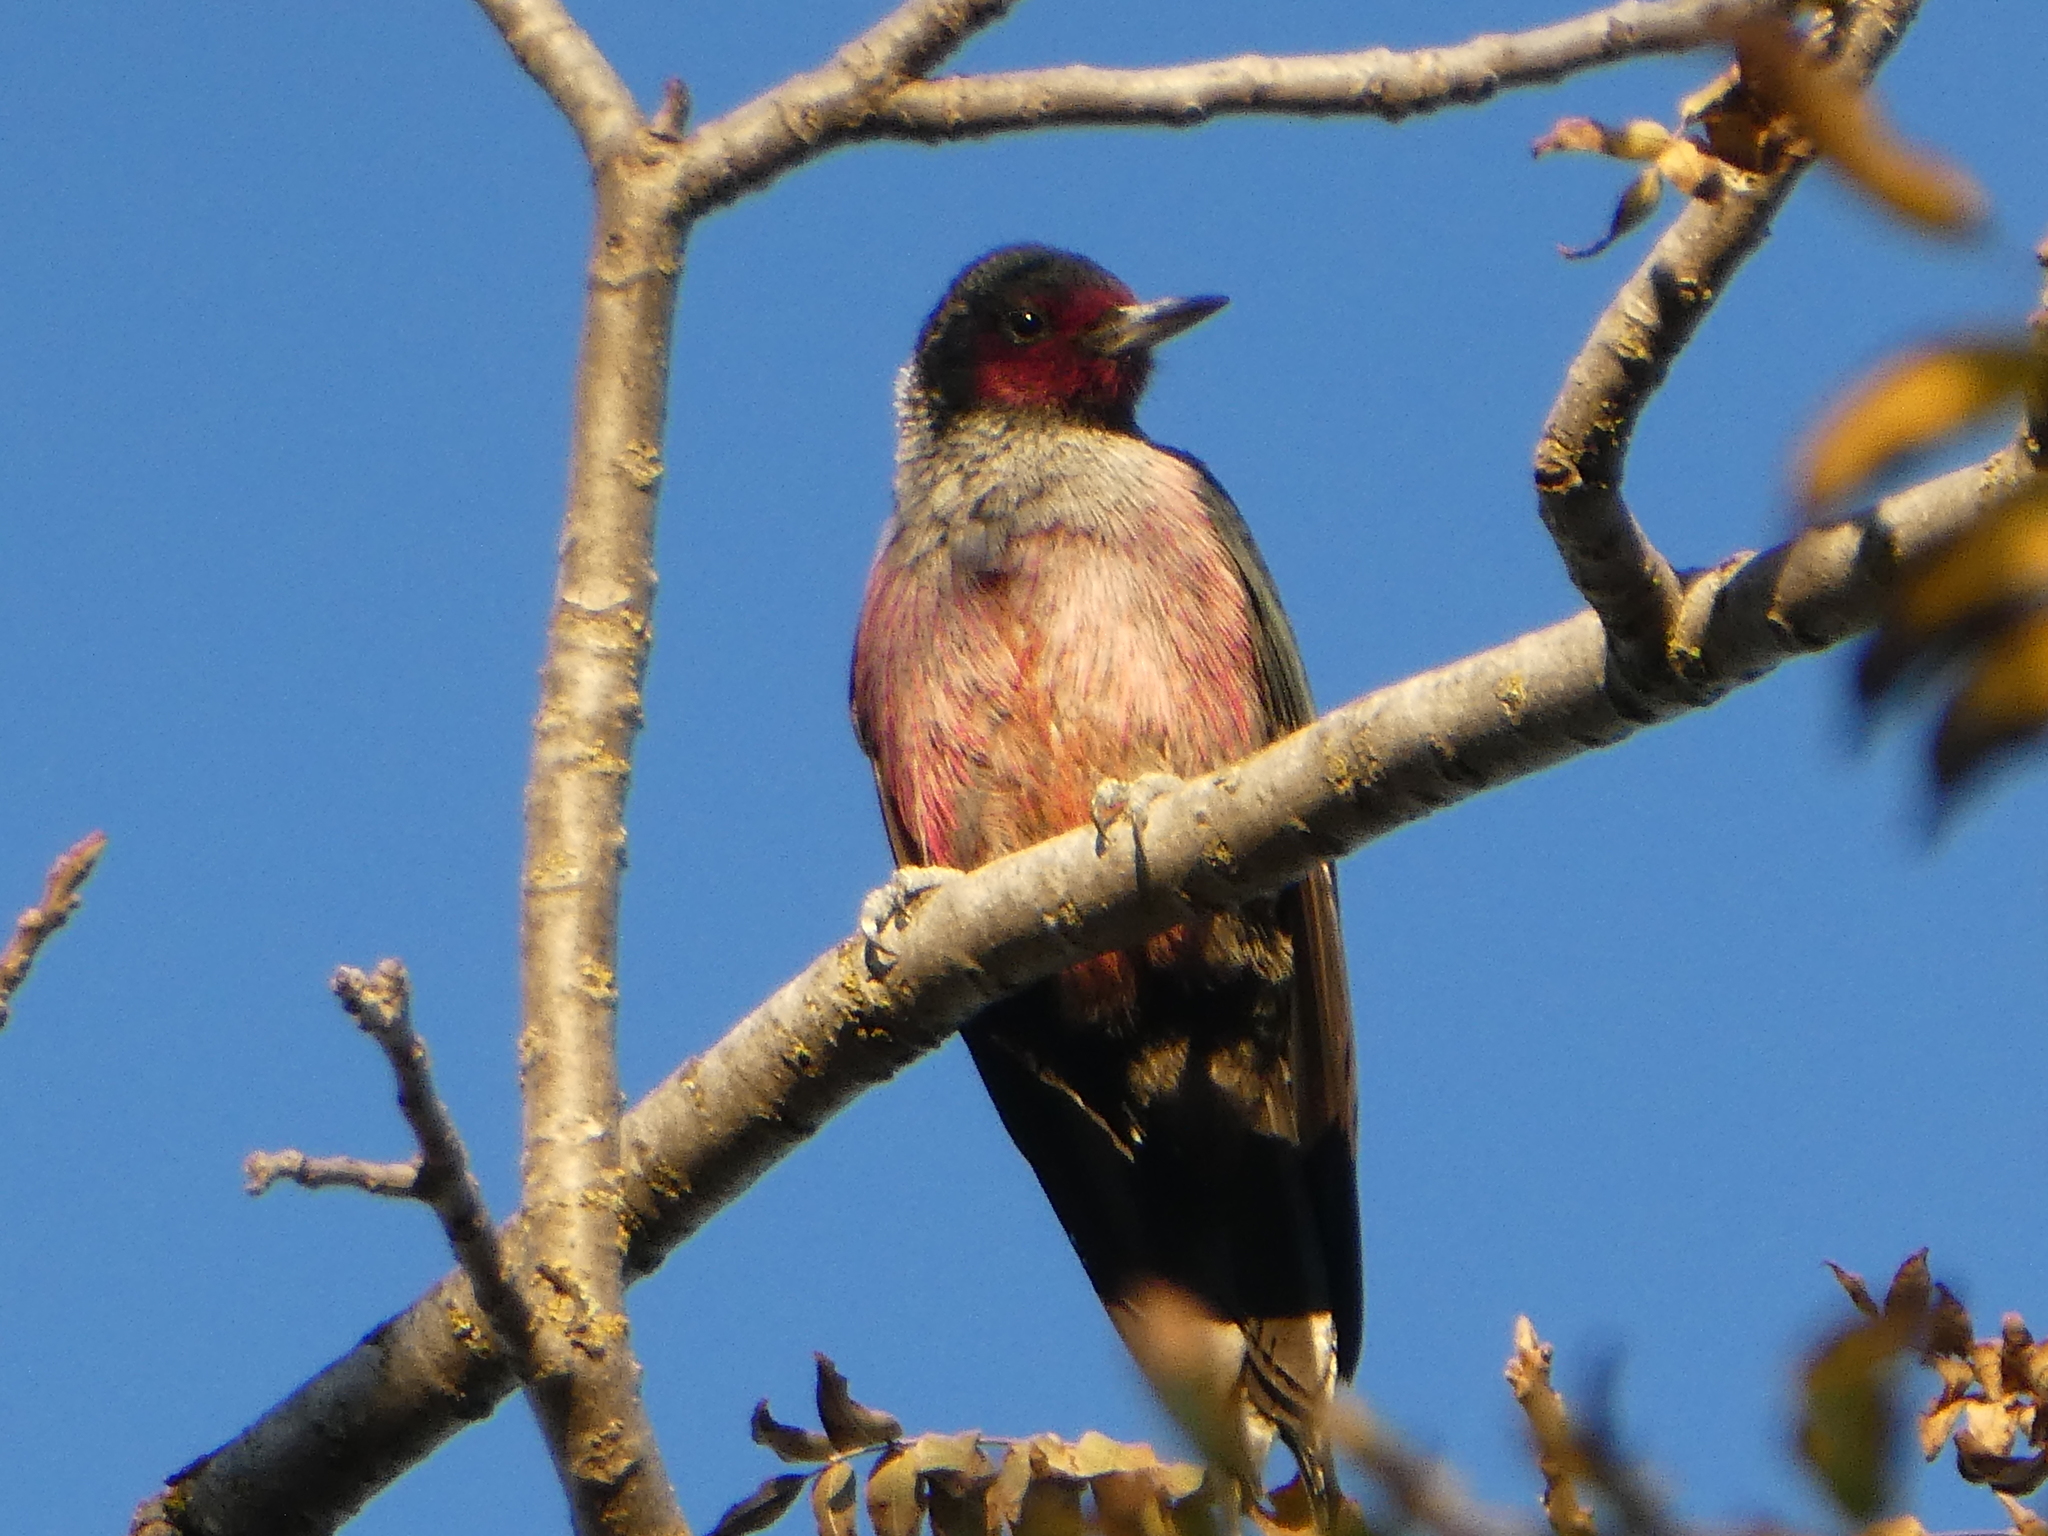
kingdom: Animalia
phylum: Chordata
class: Aves
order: Piciformes
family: Picidae
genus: Melanerpes
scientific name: Melanerpes lewis
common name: Lewis's woodpecker
